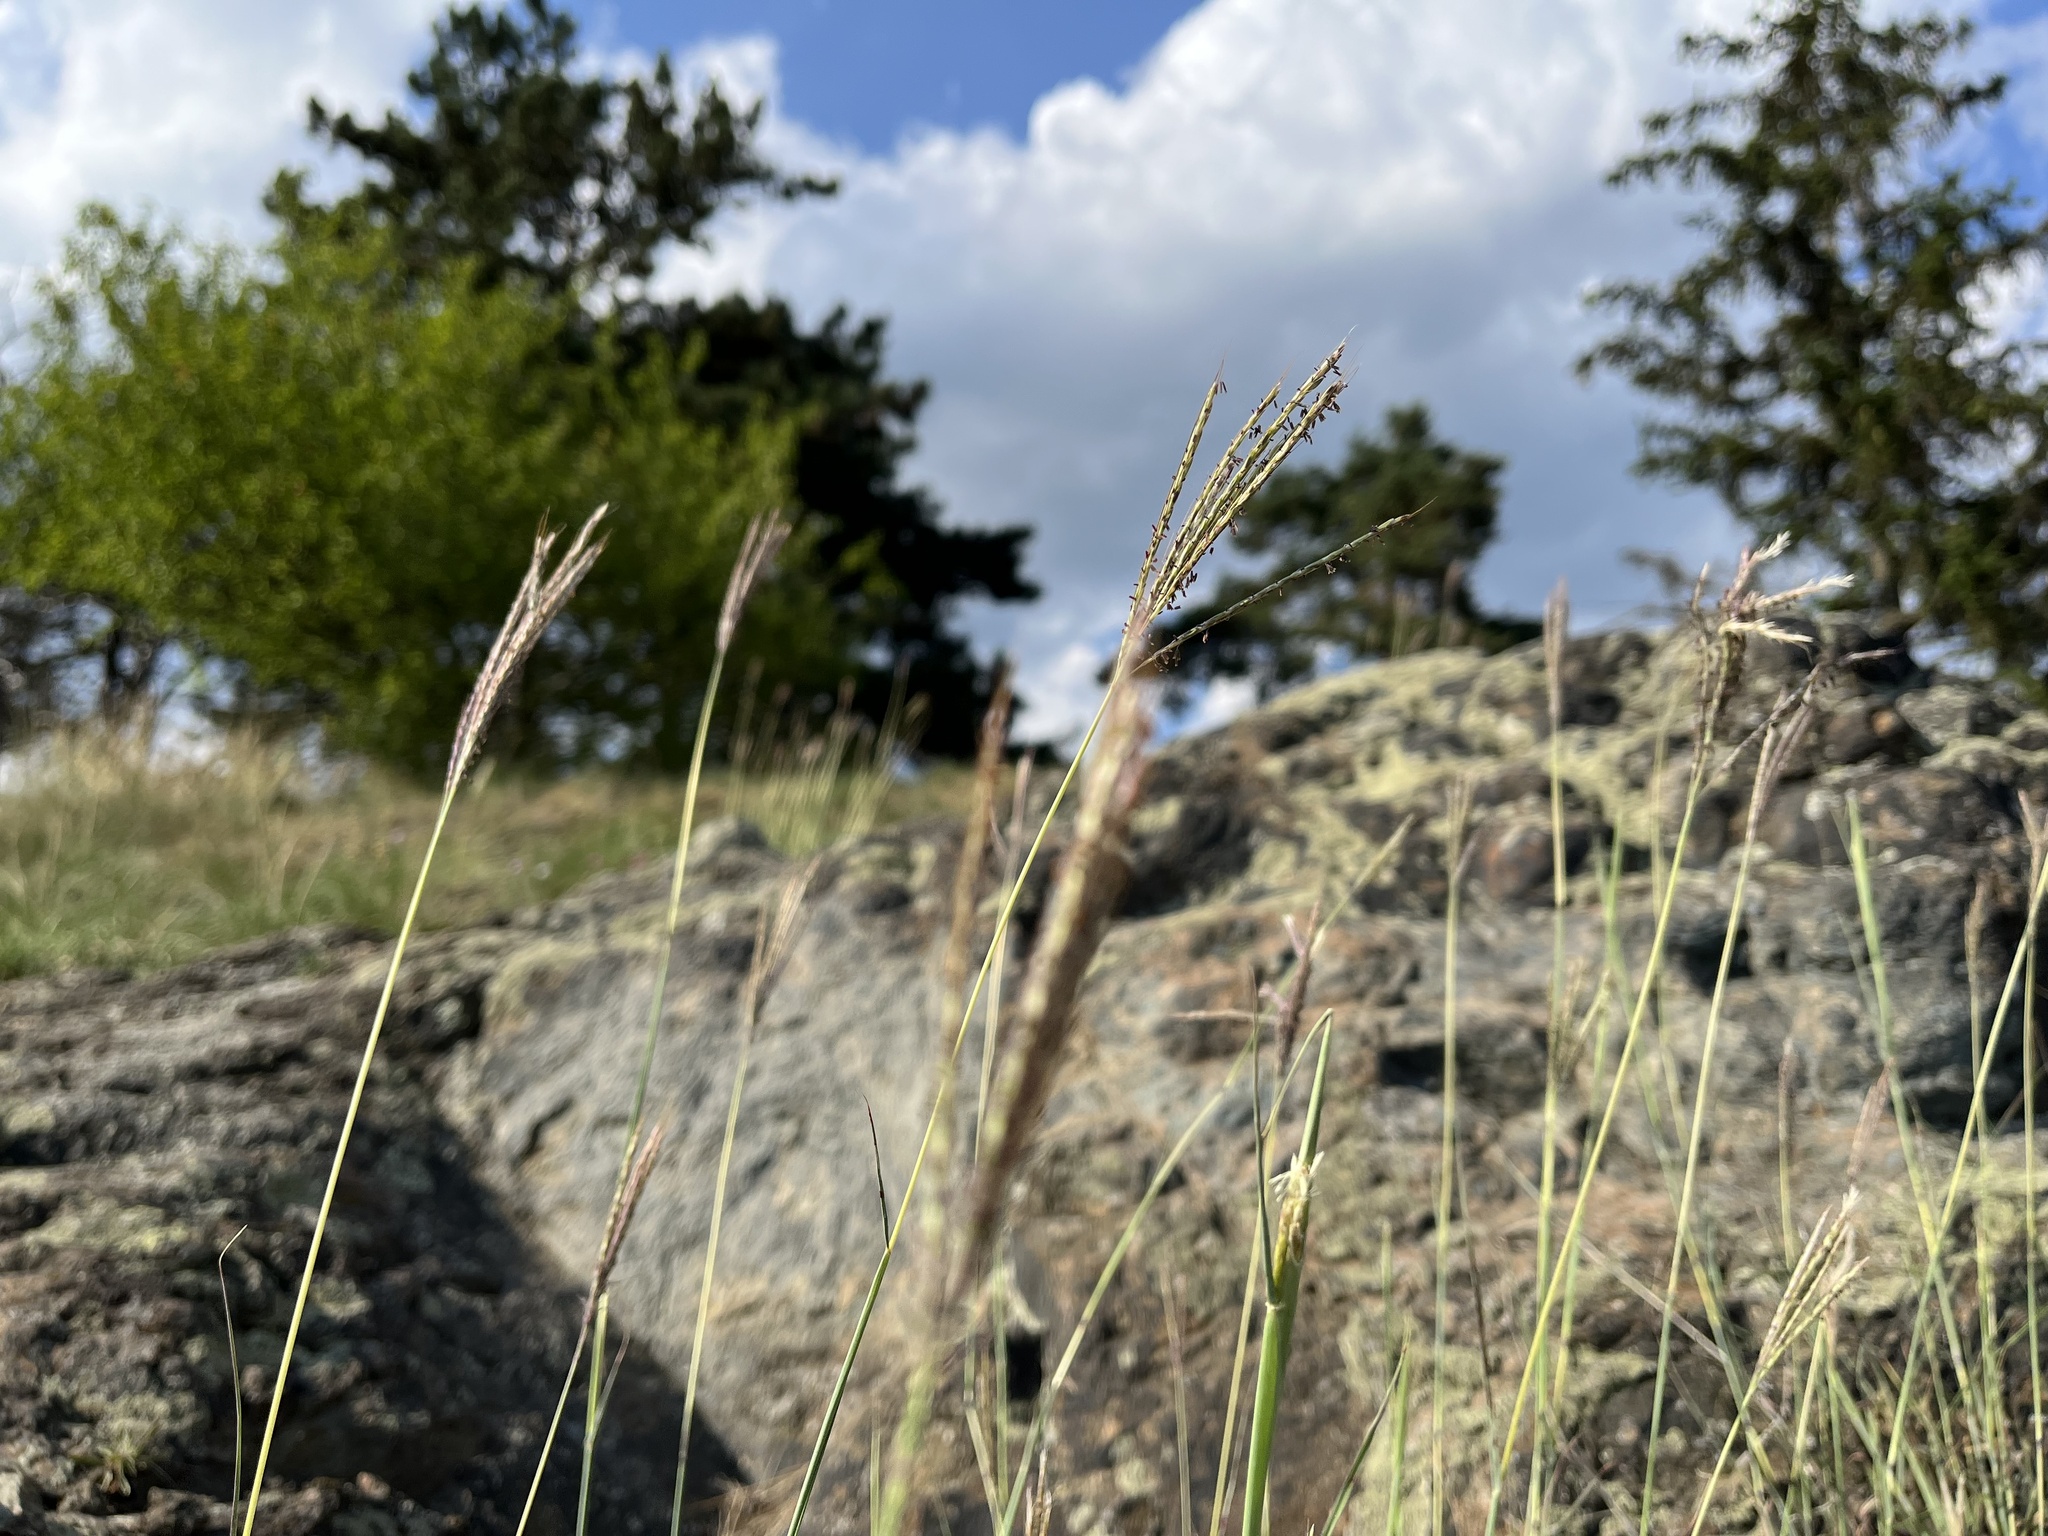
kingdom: Plantae
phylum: Tracheophyta
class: Liliopsida
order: Poales
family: Poaceae
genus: Bothriochloa
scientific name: Bothriochloa ischaemum
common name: Yellow bluestem
